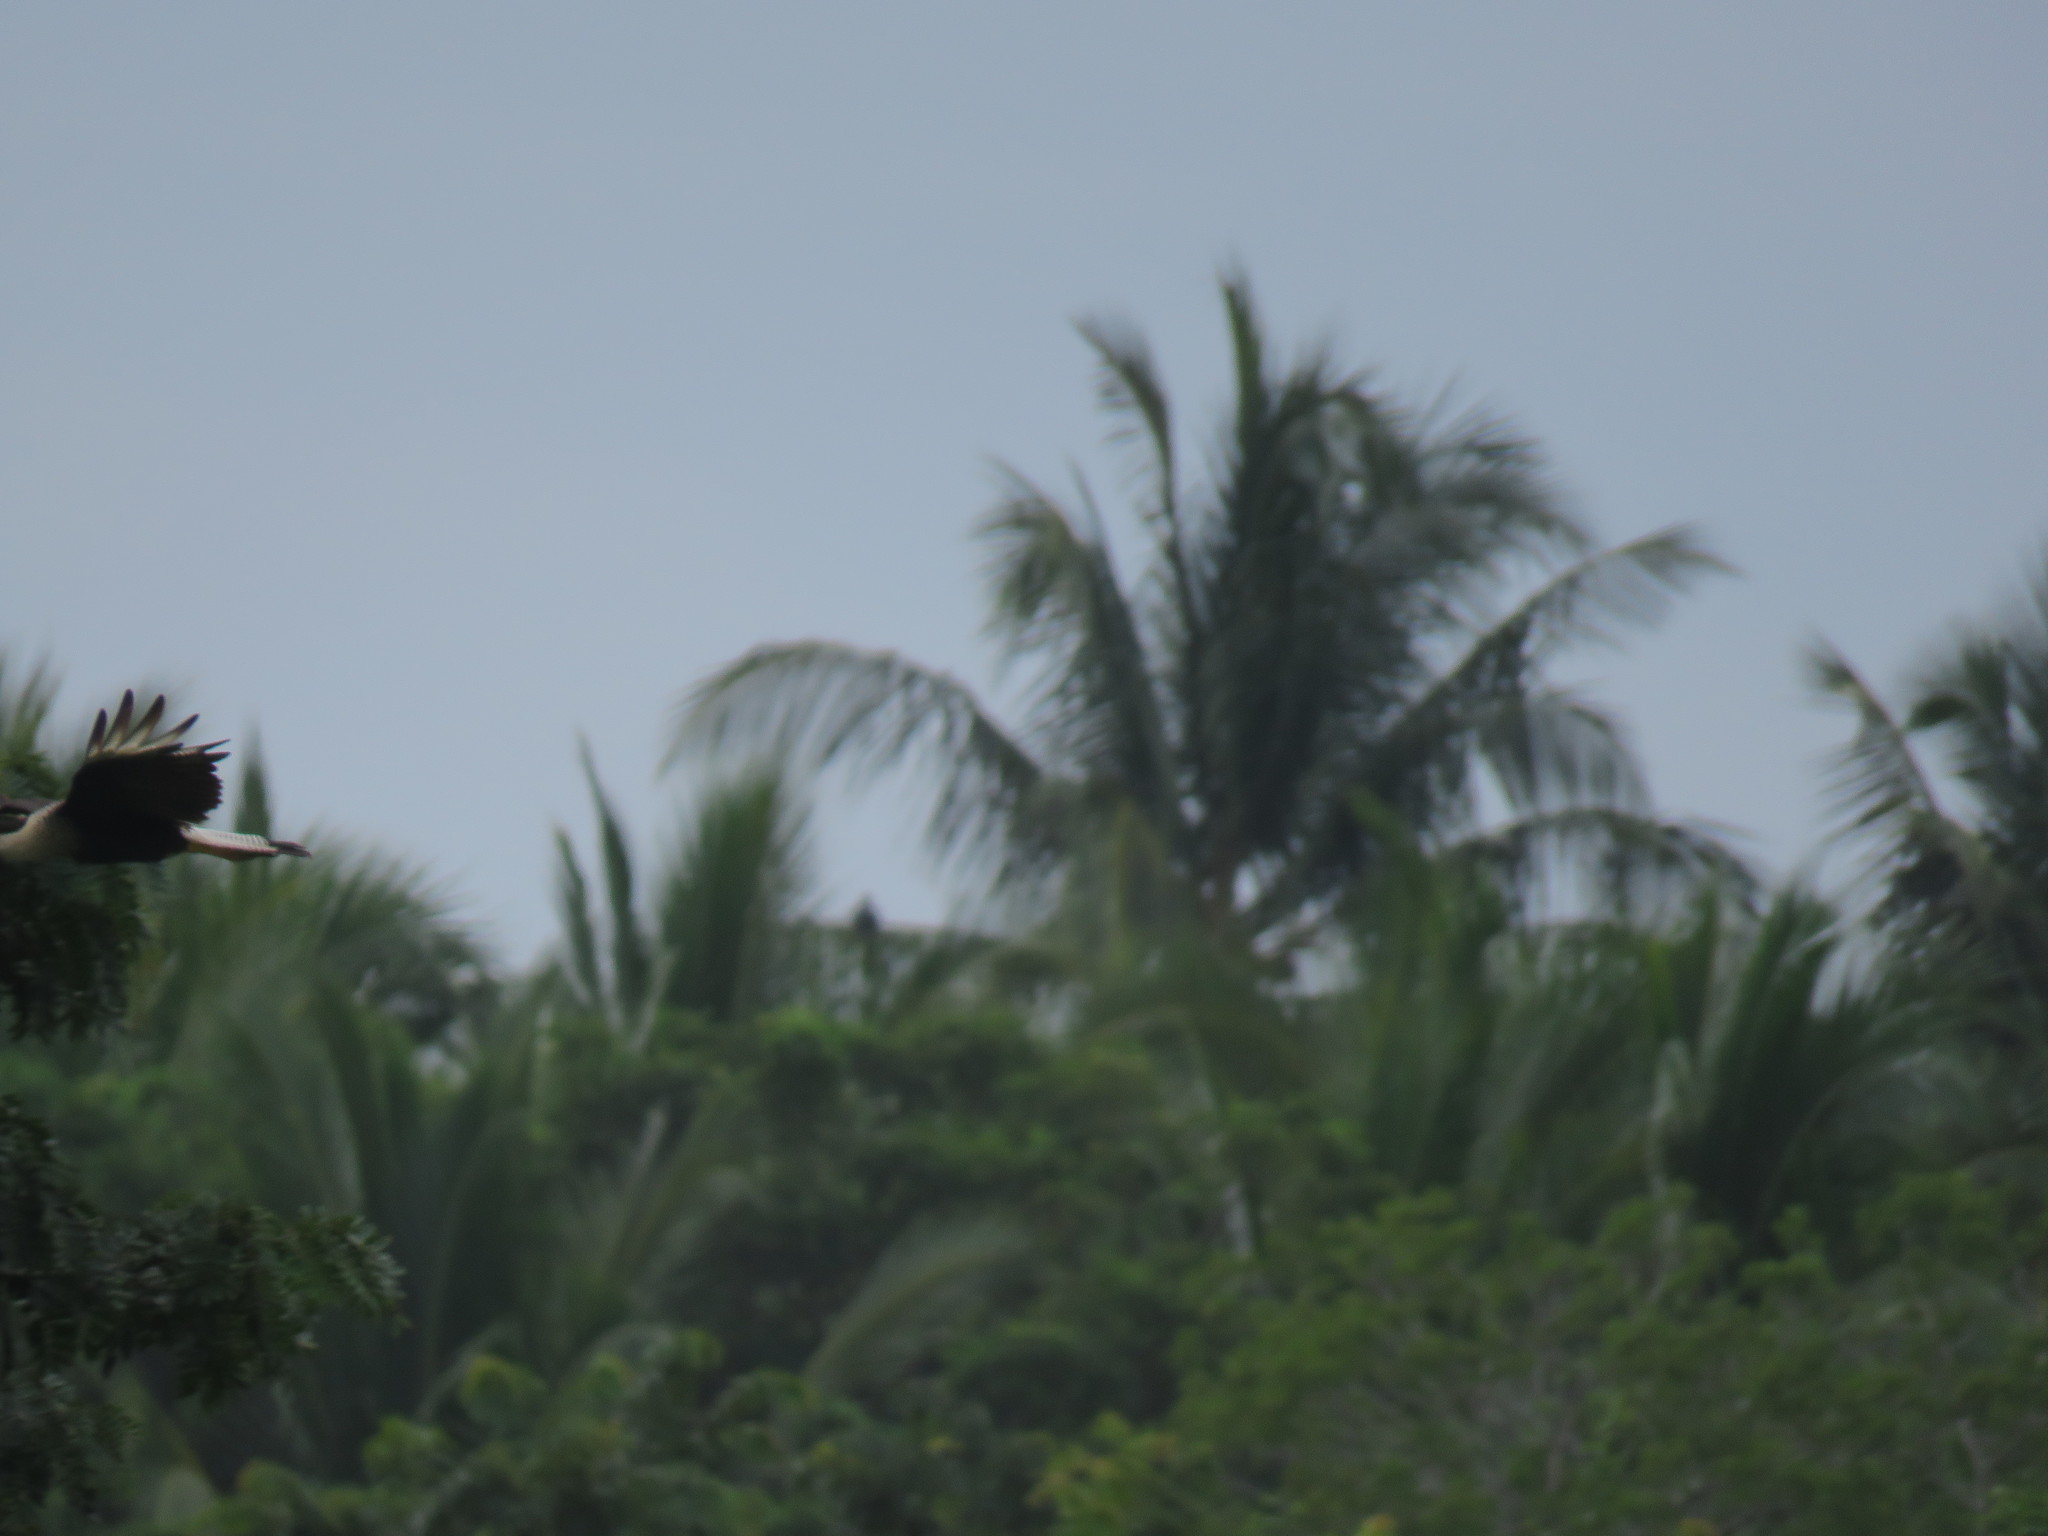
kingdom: Animalia
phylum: Chordata
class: Aves
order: Falconiformes
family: Falconidae
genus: Caracara
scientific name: Caracara plancus
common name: Southern caracara
